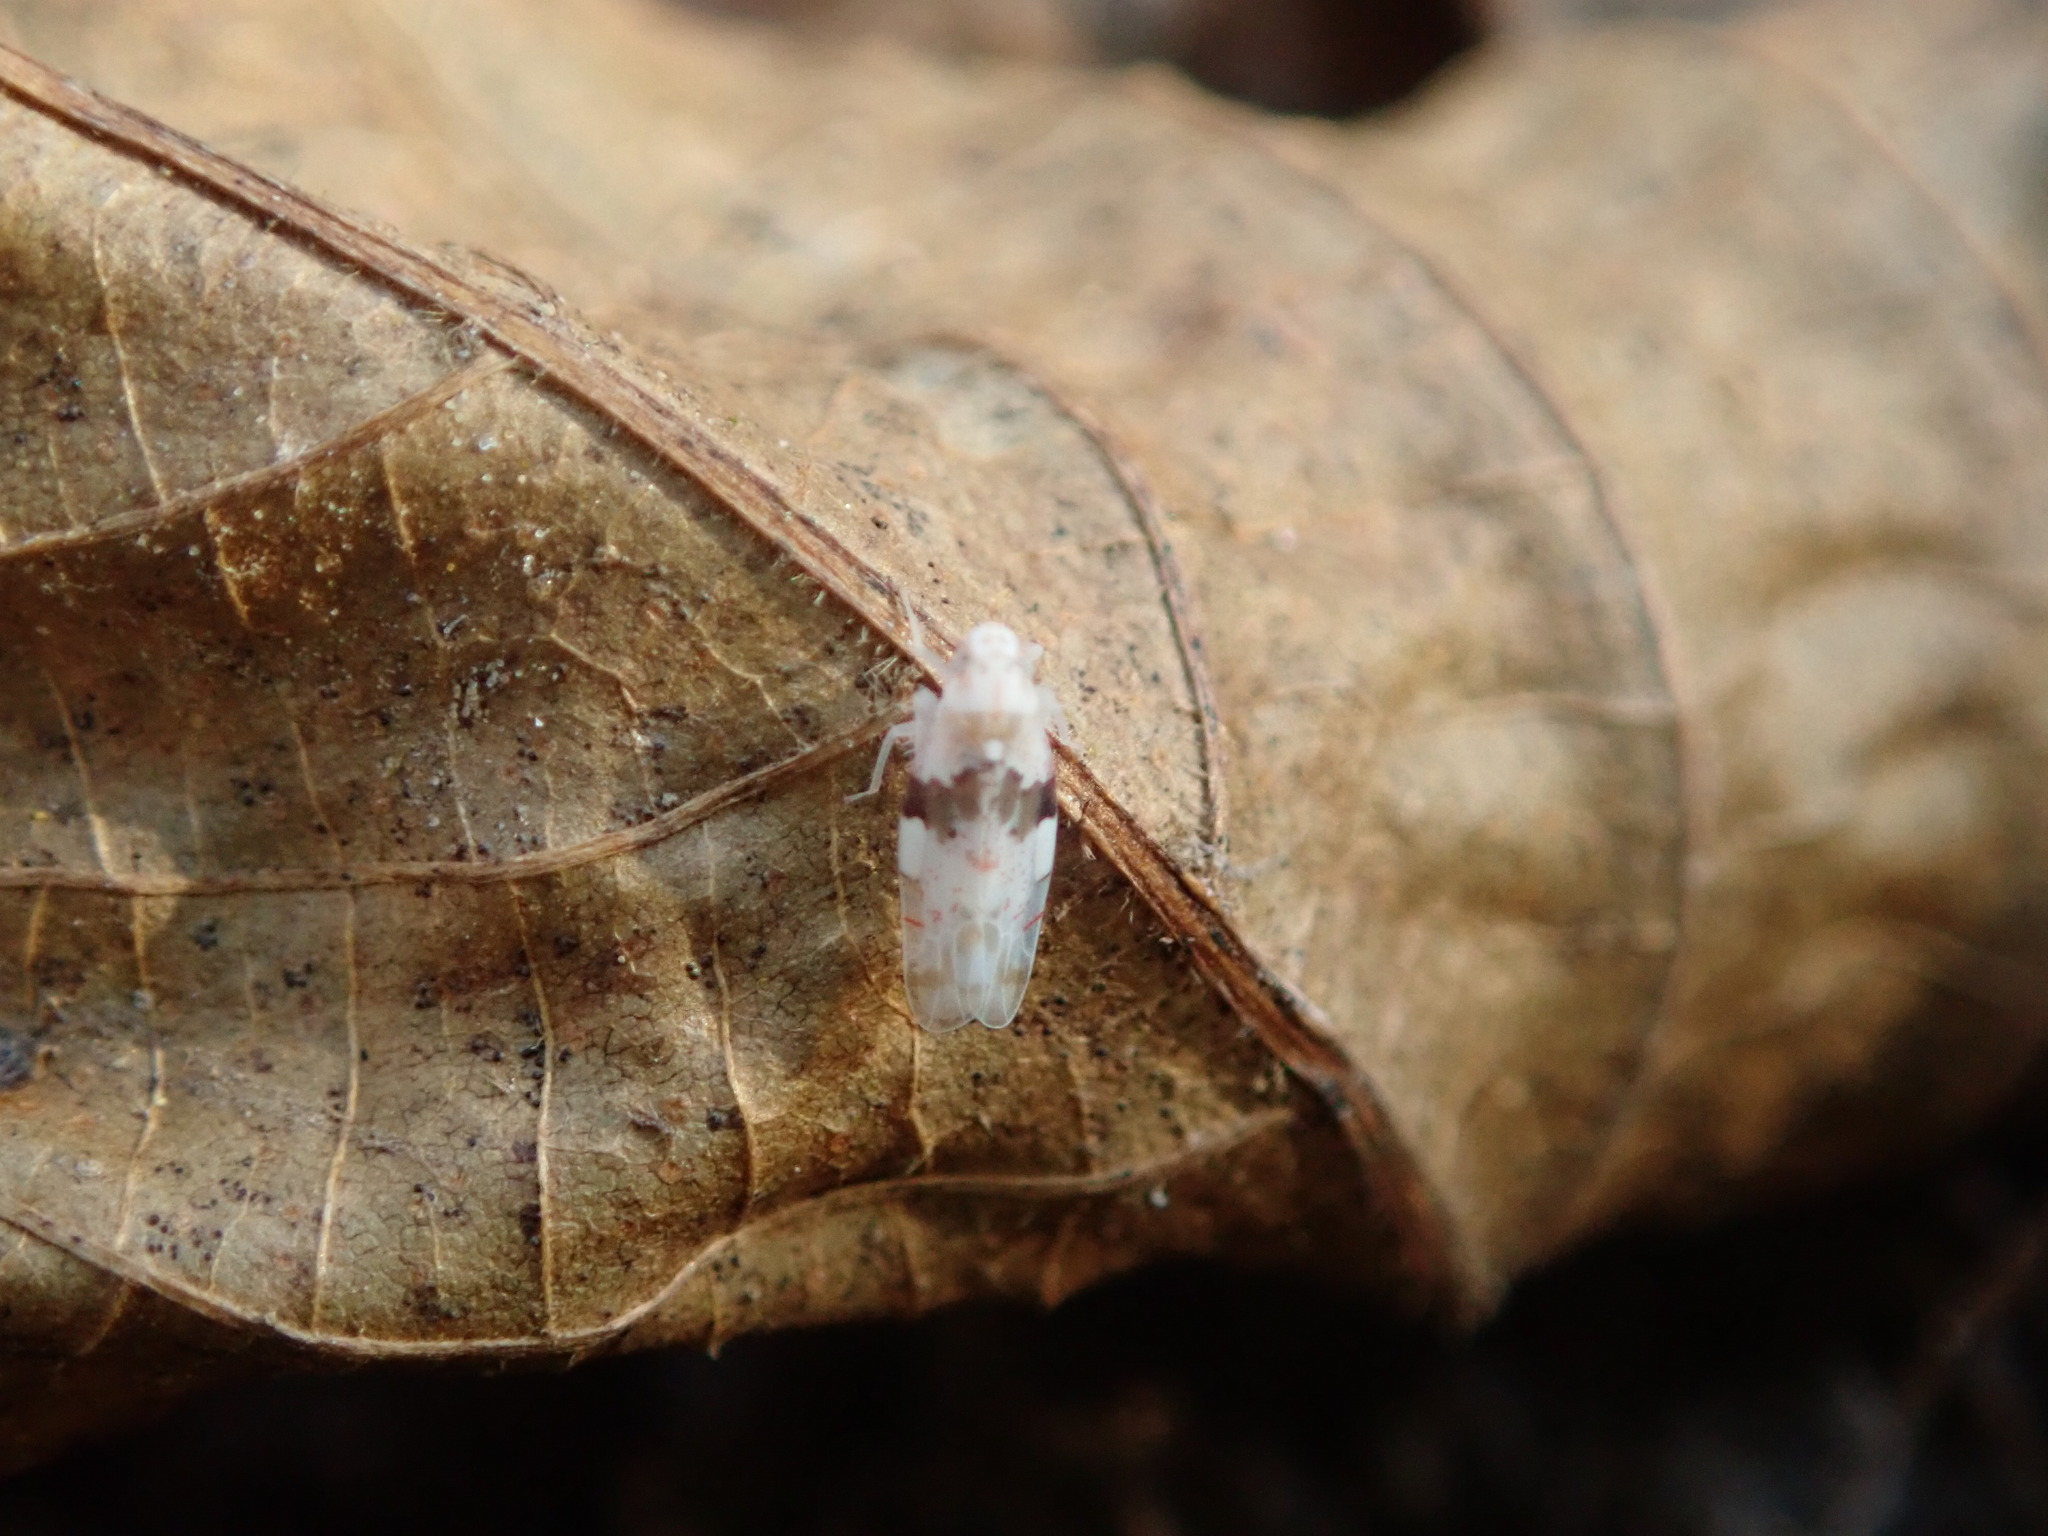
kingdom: Animalia
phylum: Arthropoda
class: Insecta
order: Hemiptera
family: Cicadellidae
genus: Hymetta
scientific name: Hymetta balteata
